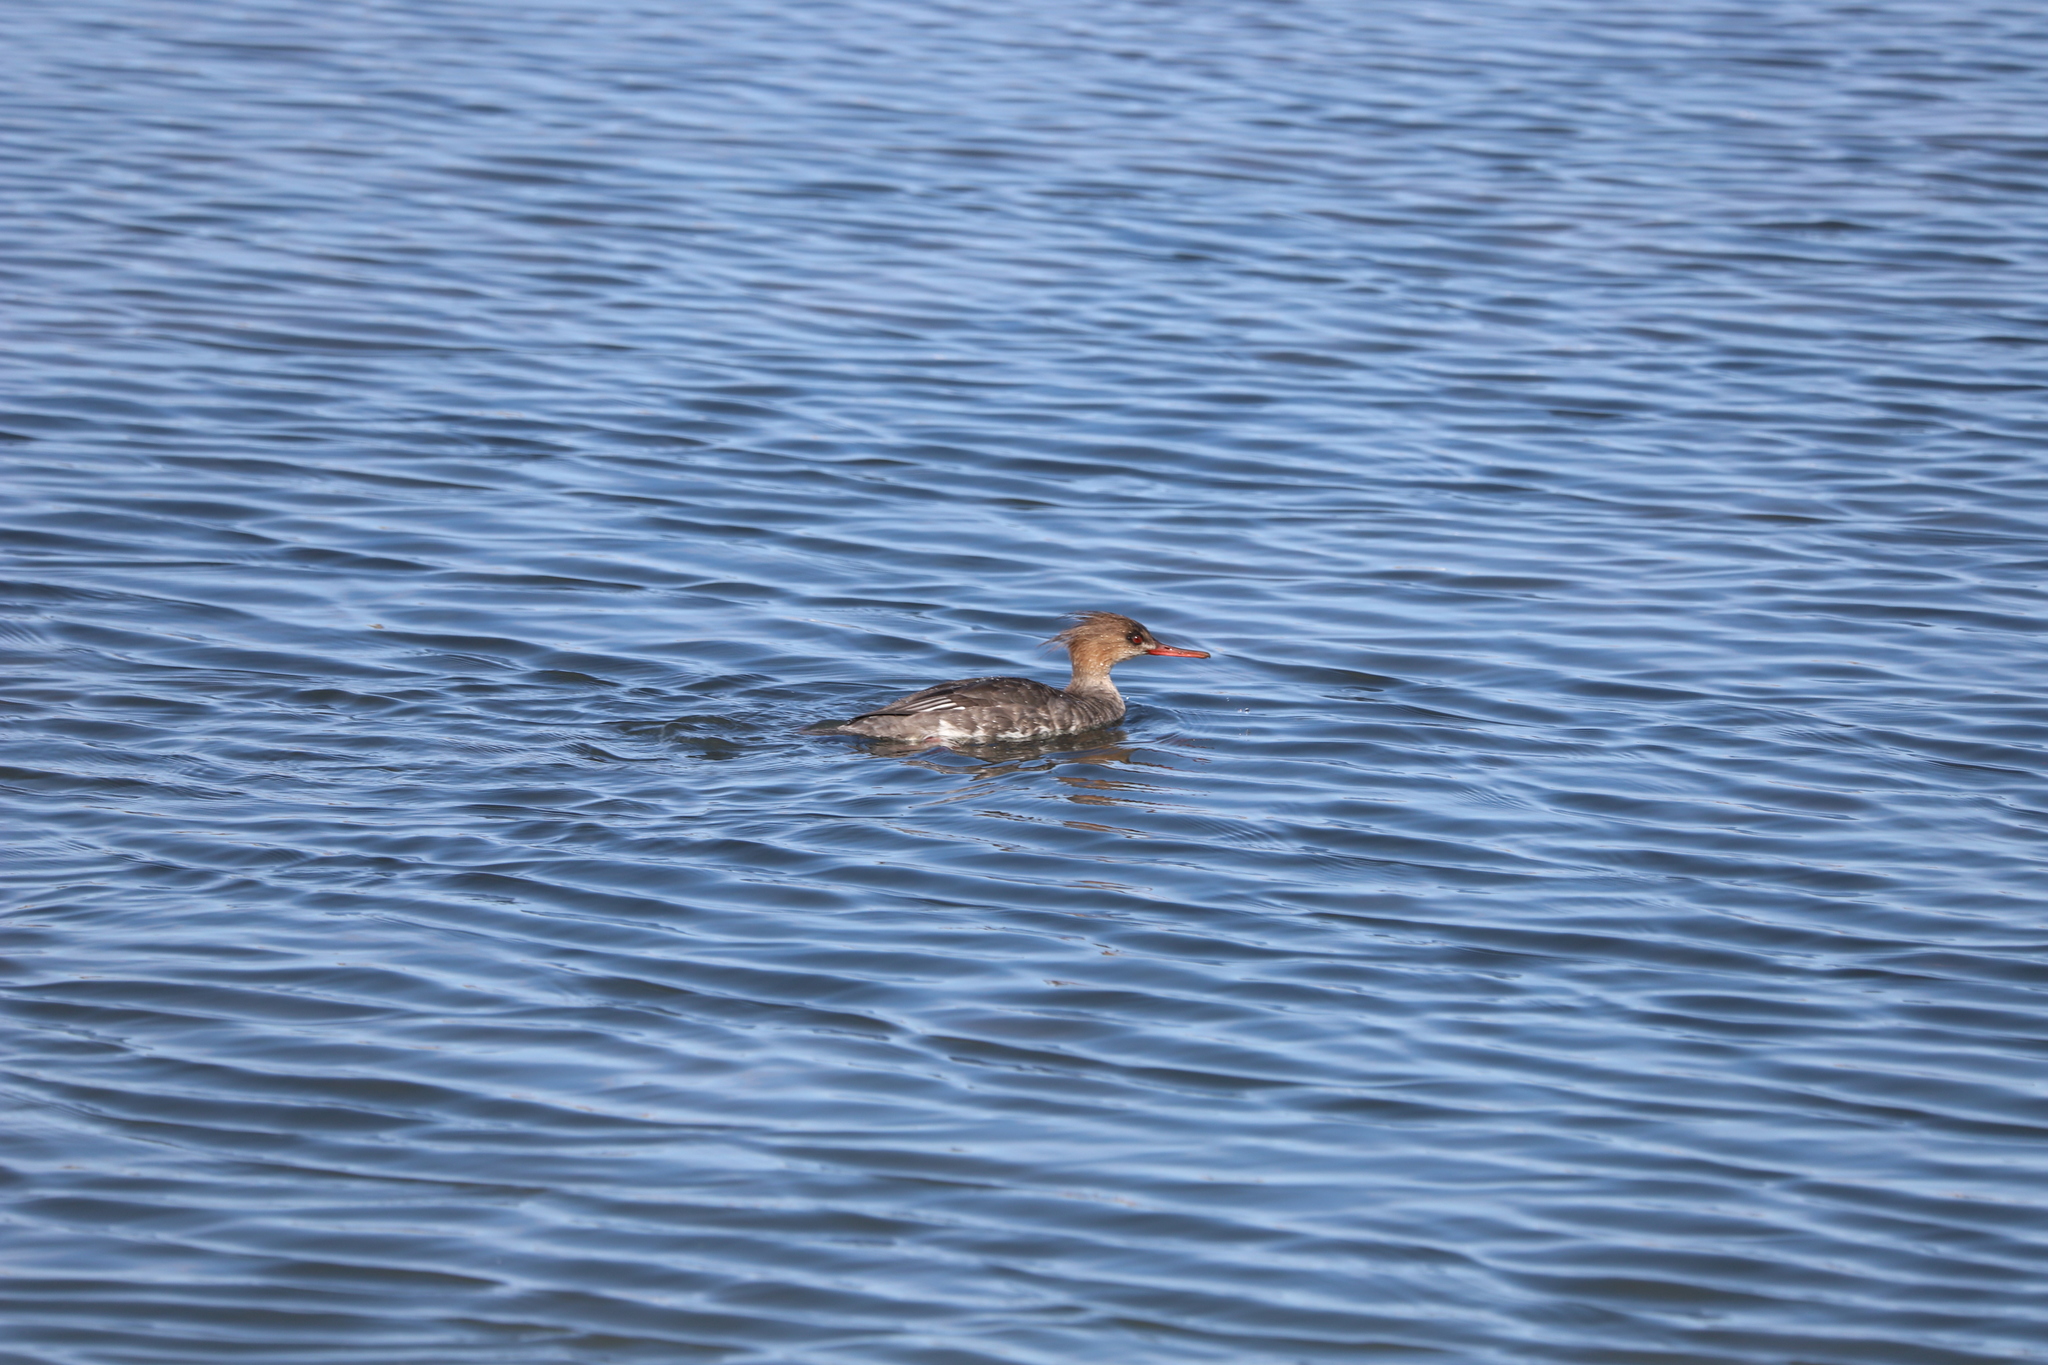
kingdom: Animalia
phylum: Chordata
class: Aves
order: Anseriformes
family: Anatidae
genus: Mergus
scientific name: Mergus serrator
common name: Red-breasted merganser
